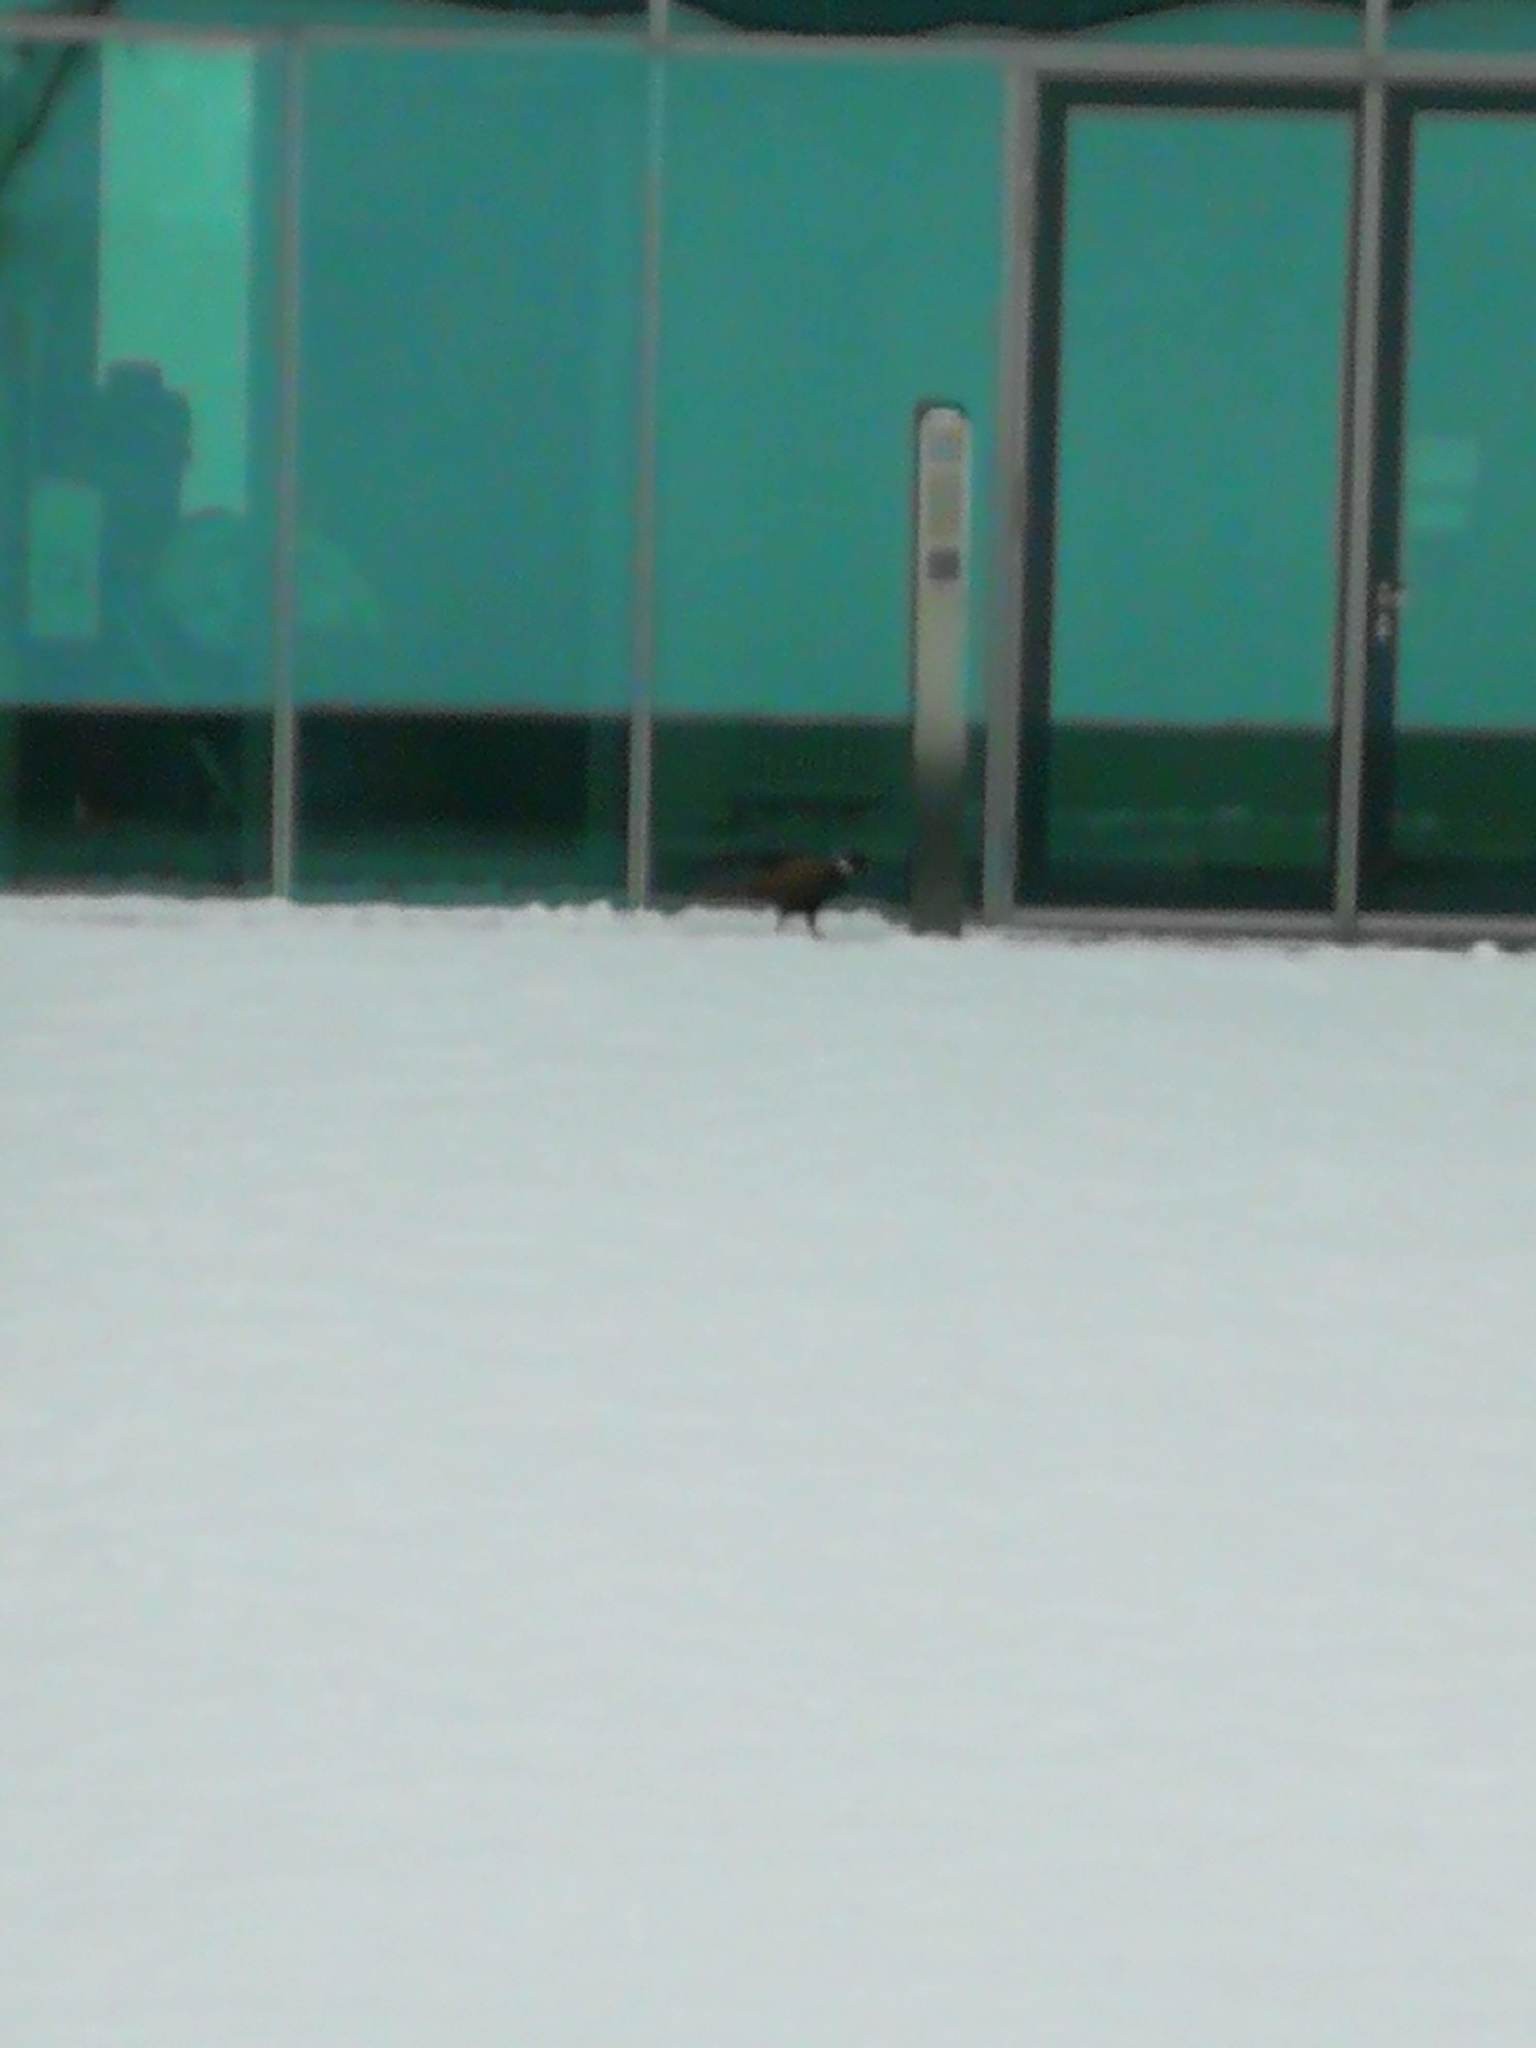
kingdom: Animalia
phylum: Chordata
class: Aves
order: Galliformes
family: Phasianidae
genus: Phasianus
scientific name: Phasianus colchicus
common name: Common pheasant
